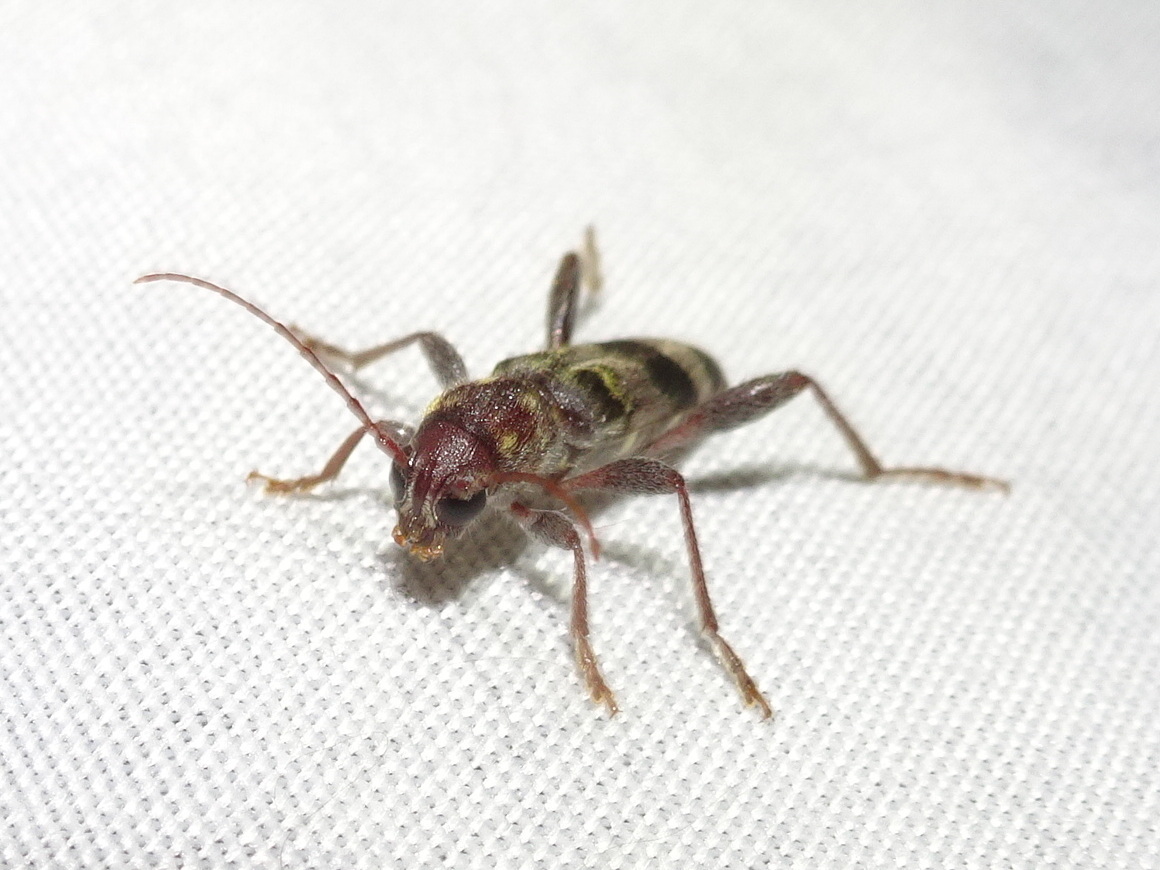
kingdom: Animalia
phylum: Arthropoda
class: Insecta
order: Coleoptera
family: Cerambycidae
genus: Xylotrechus
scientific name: Xylotrechus colonus
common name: Long-horned beetle
